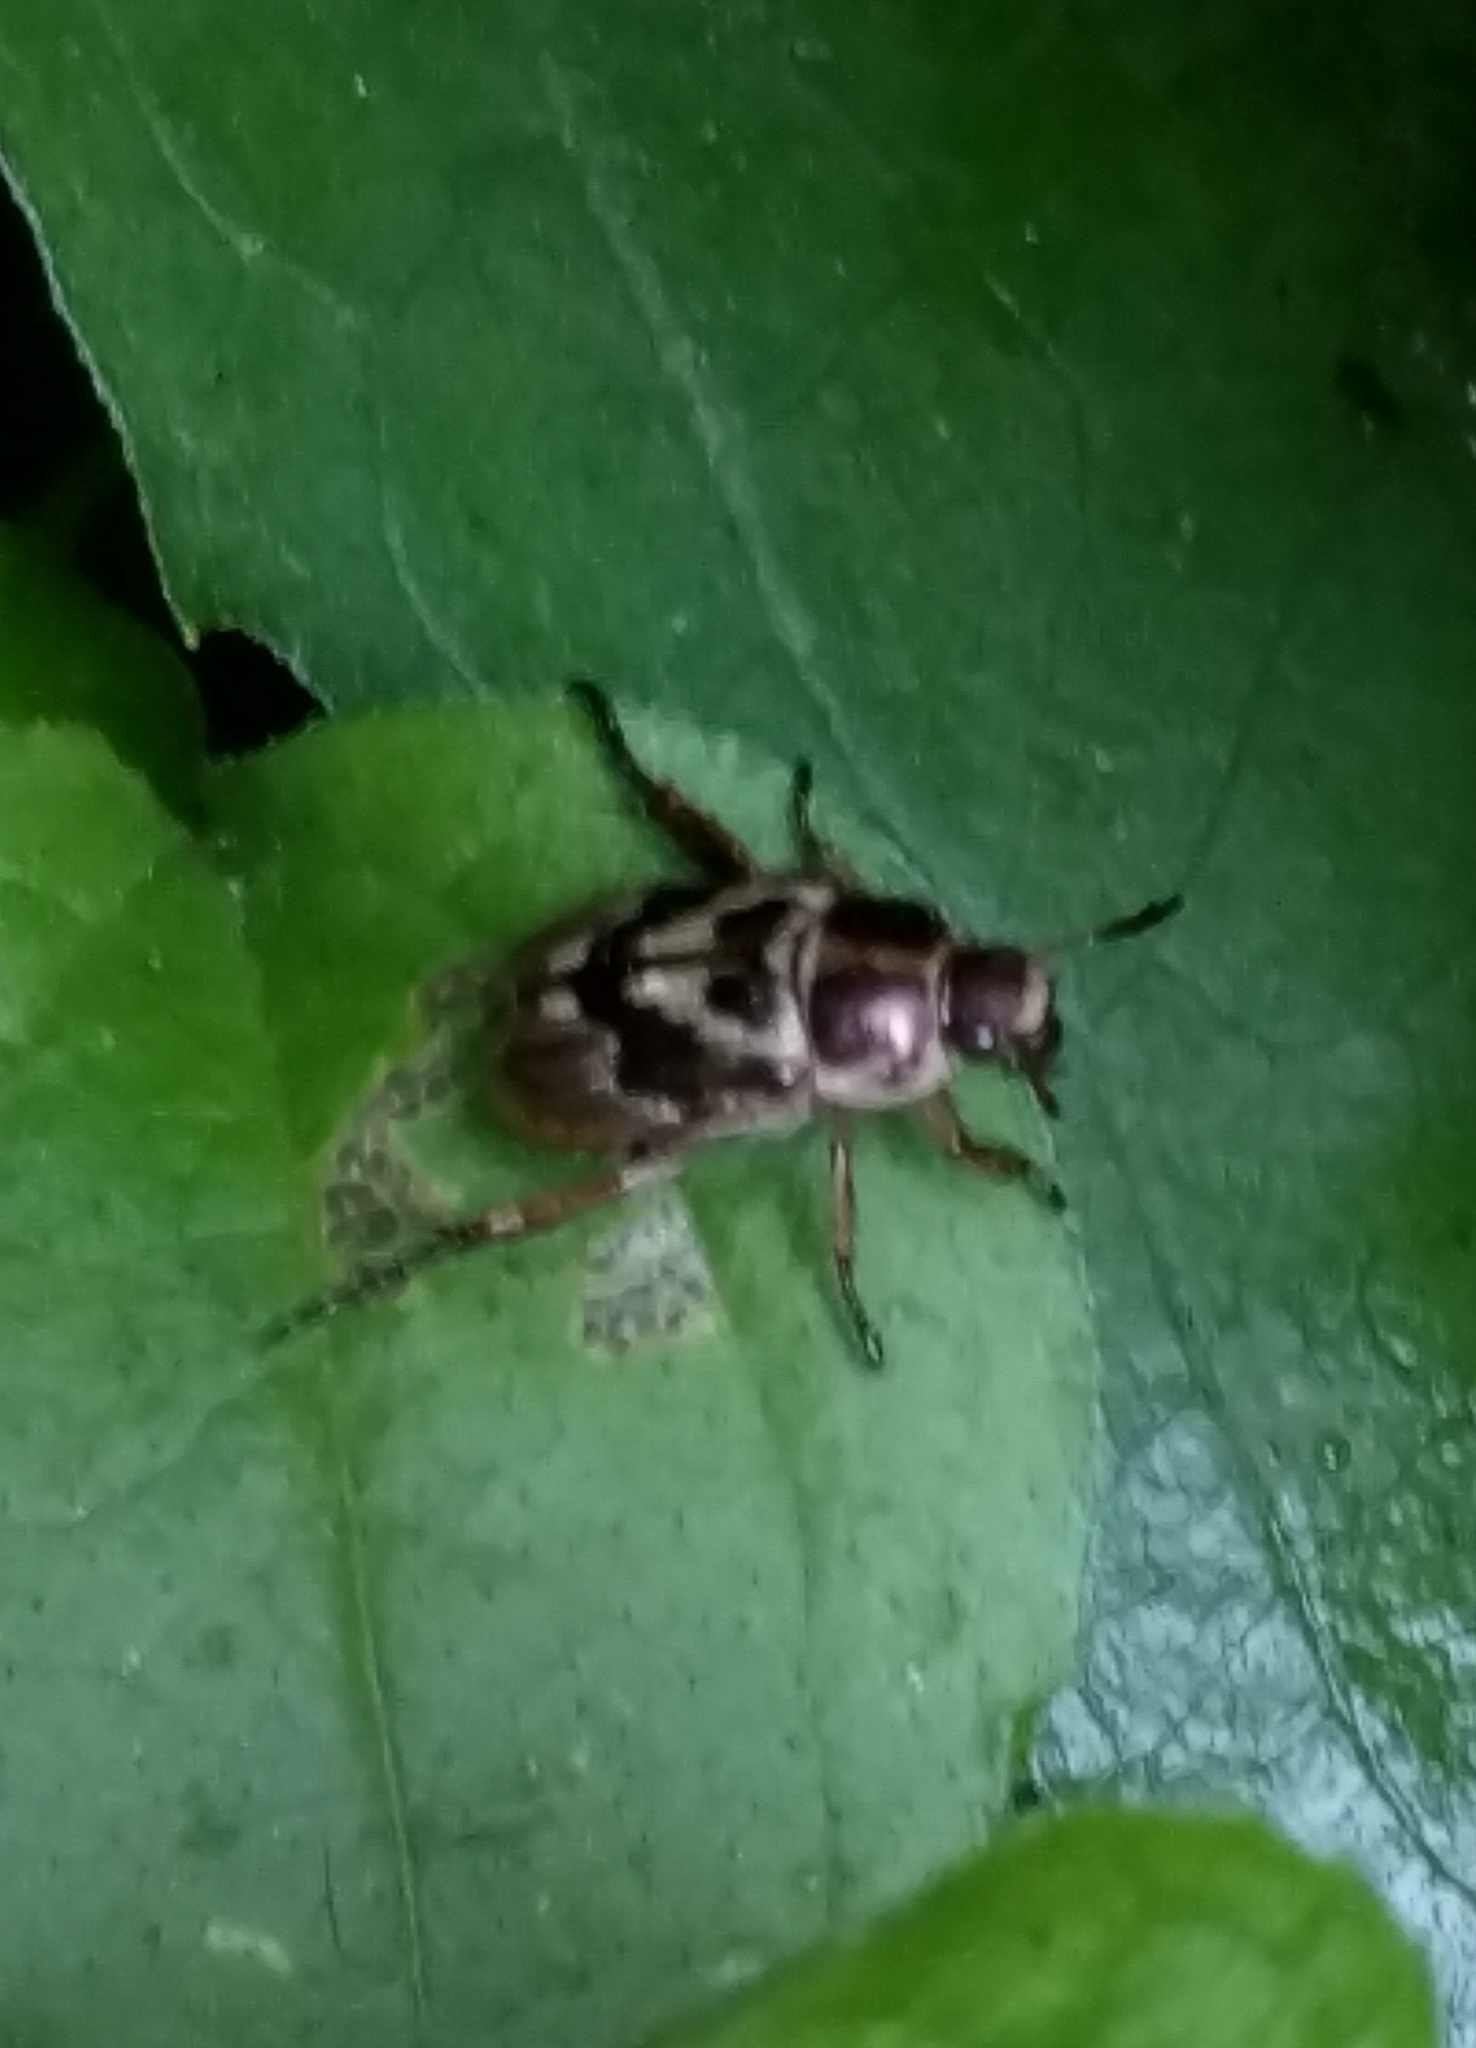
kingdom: Animalia
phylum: Arthropoda
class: Insecta
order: Coleoptera
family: Scarabaeidae
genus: Exomala
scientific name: Exomala orientalis
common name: Oriental beetle
